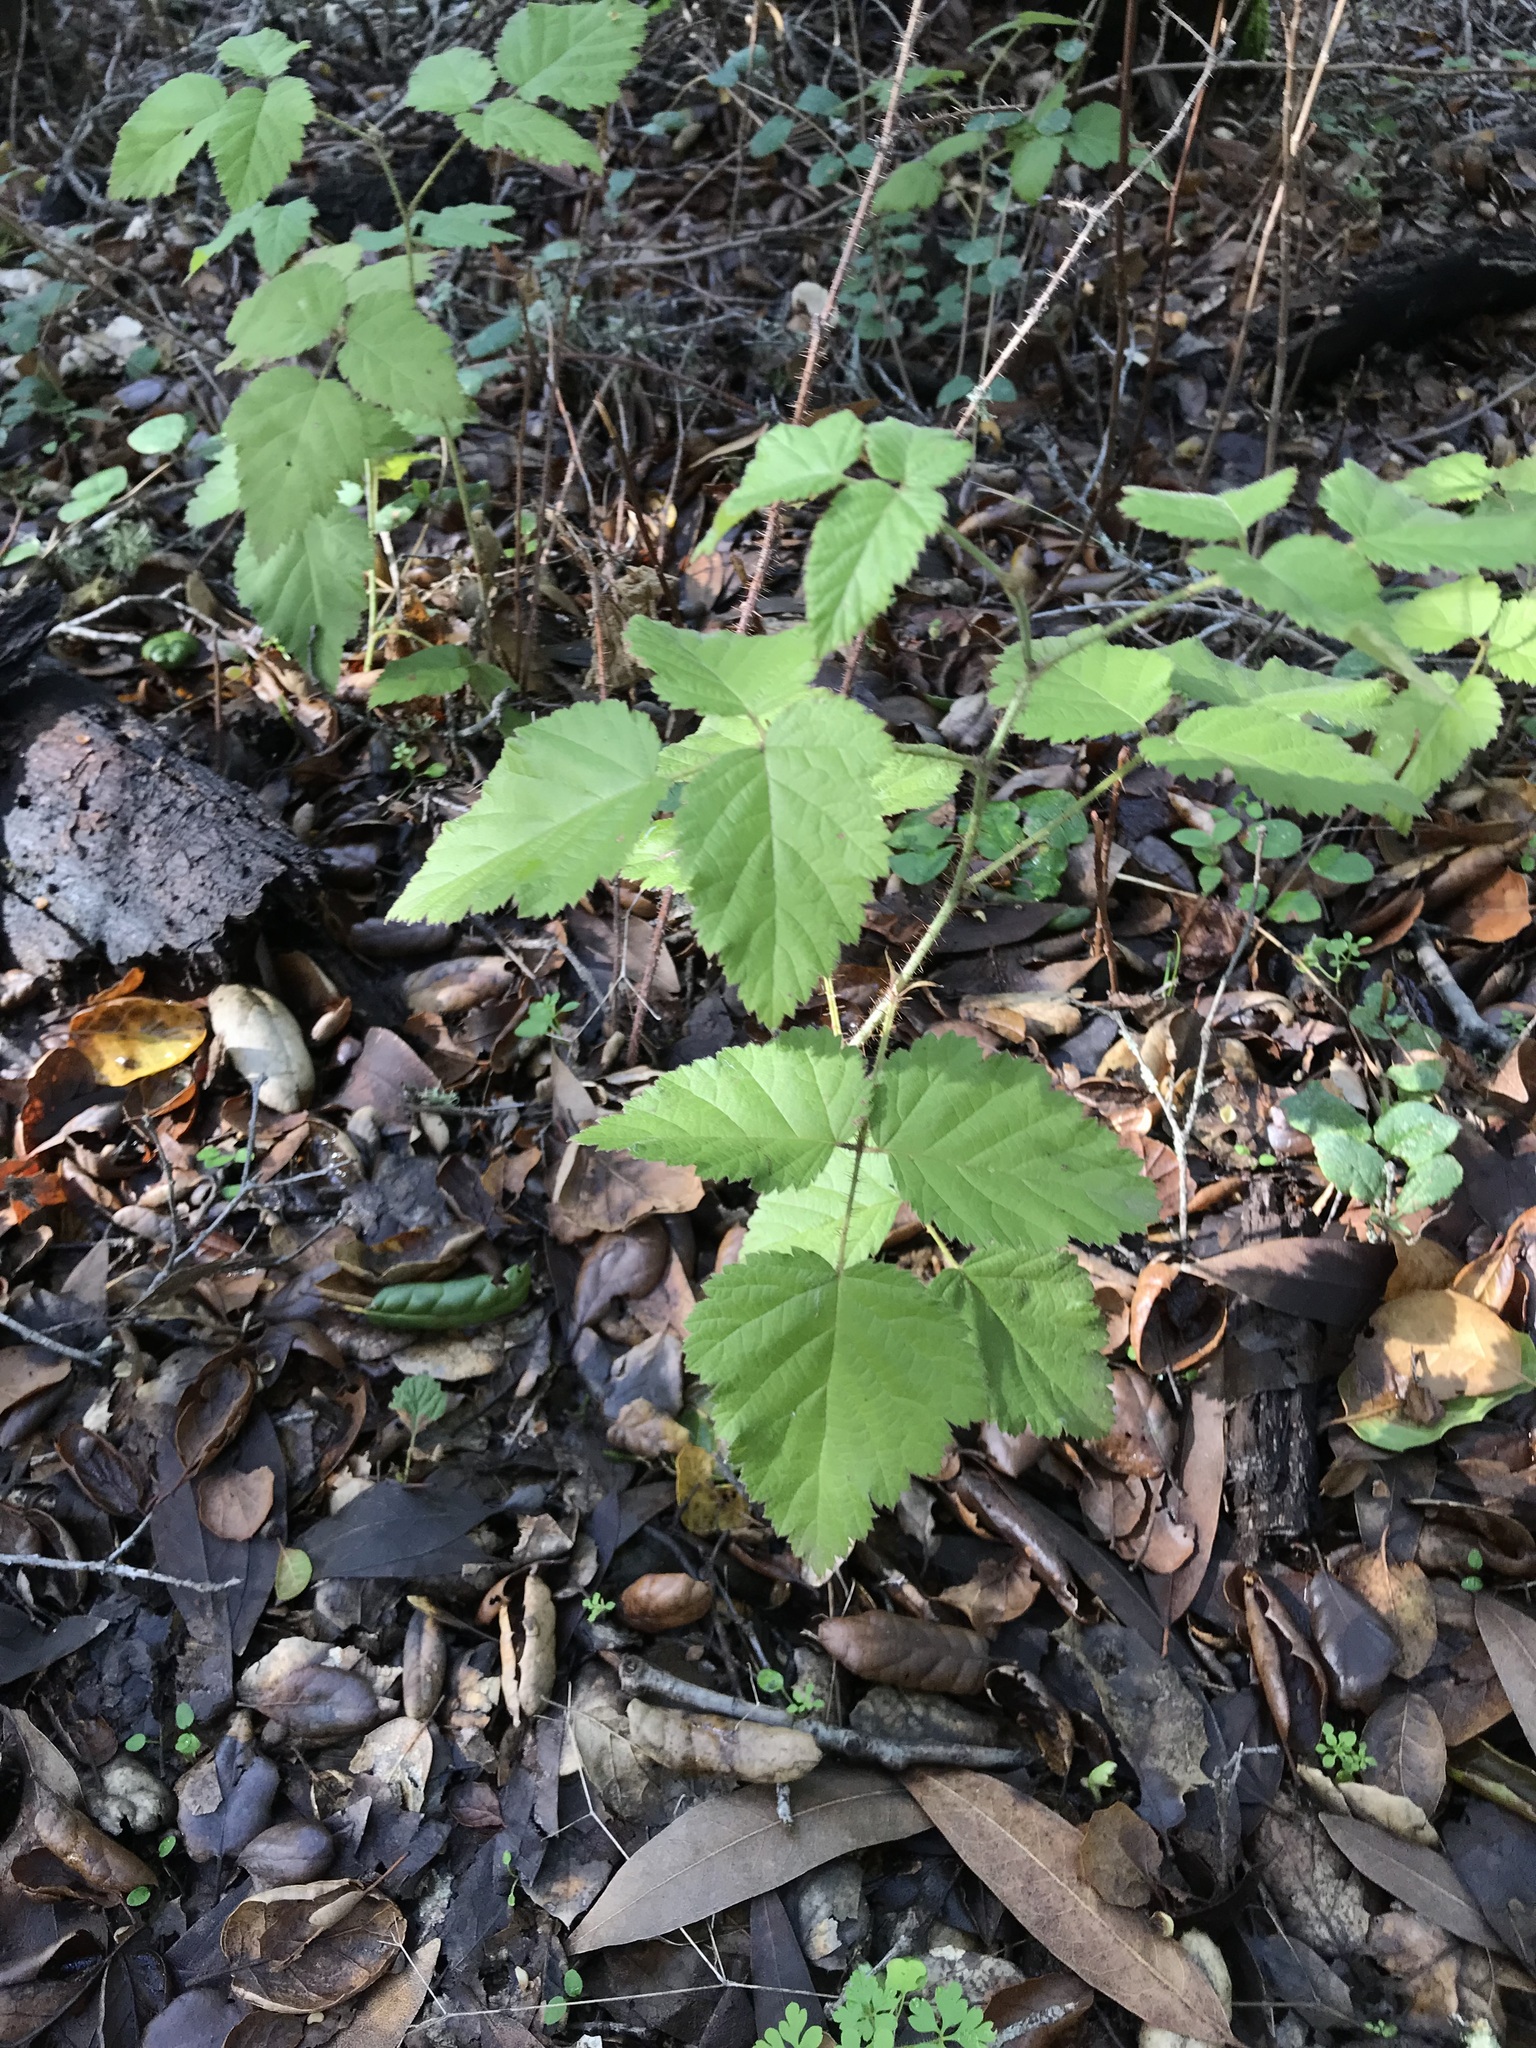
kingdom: Plantae
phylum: Tracheophyta
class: Magnoliopsida
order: Rosales
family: Rosaceae
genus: Rubus
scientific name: Rubus ursinus
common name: Pacific blackberry
